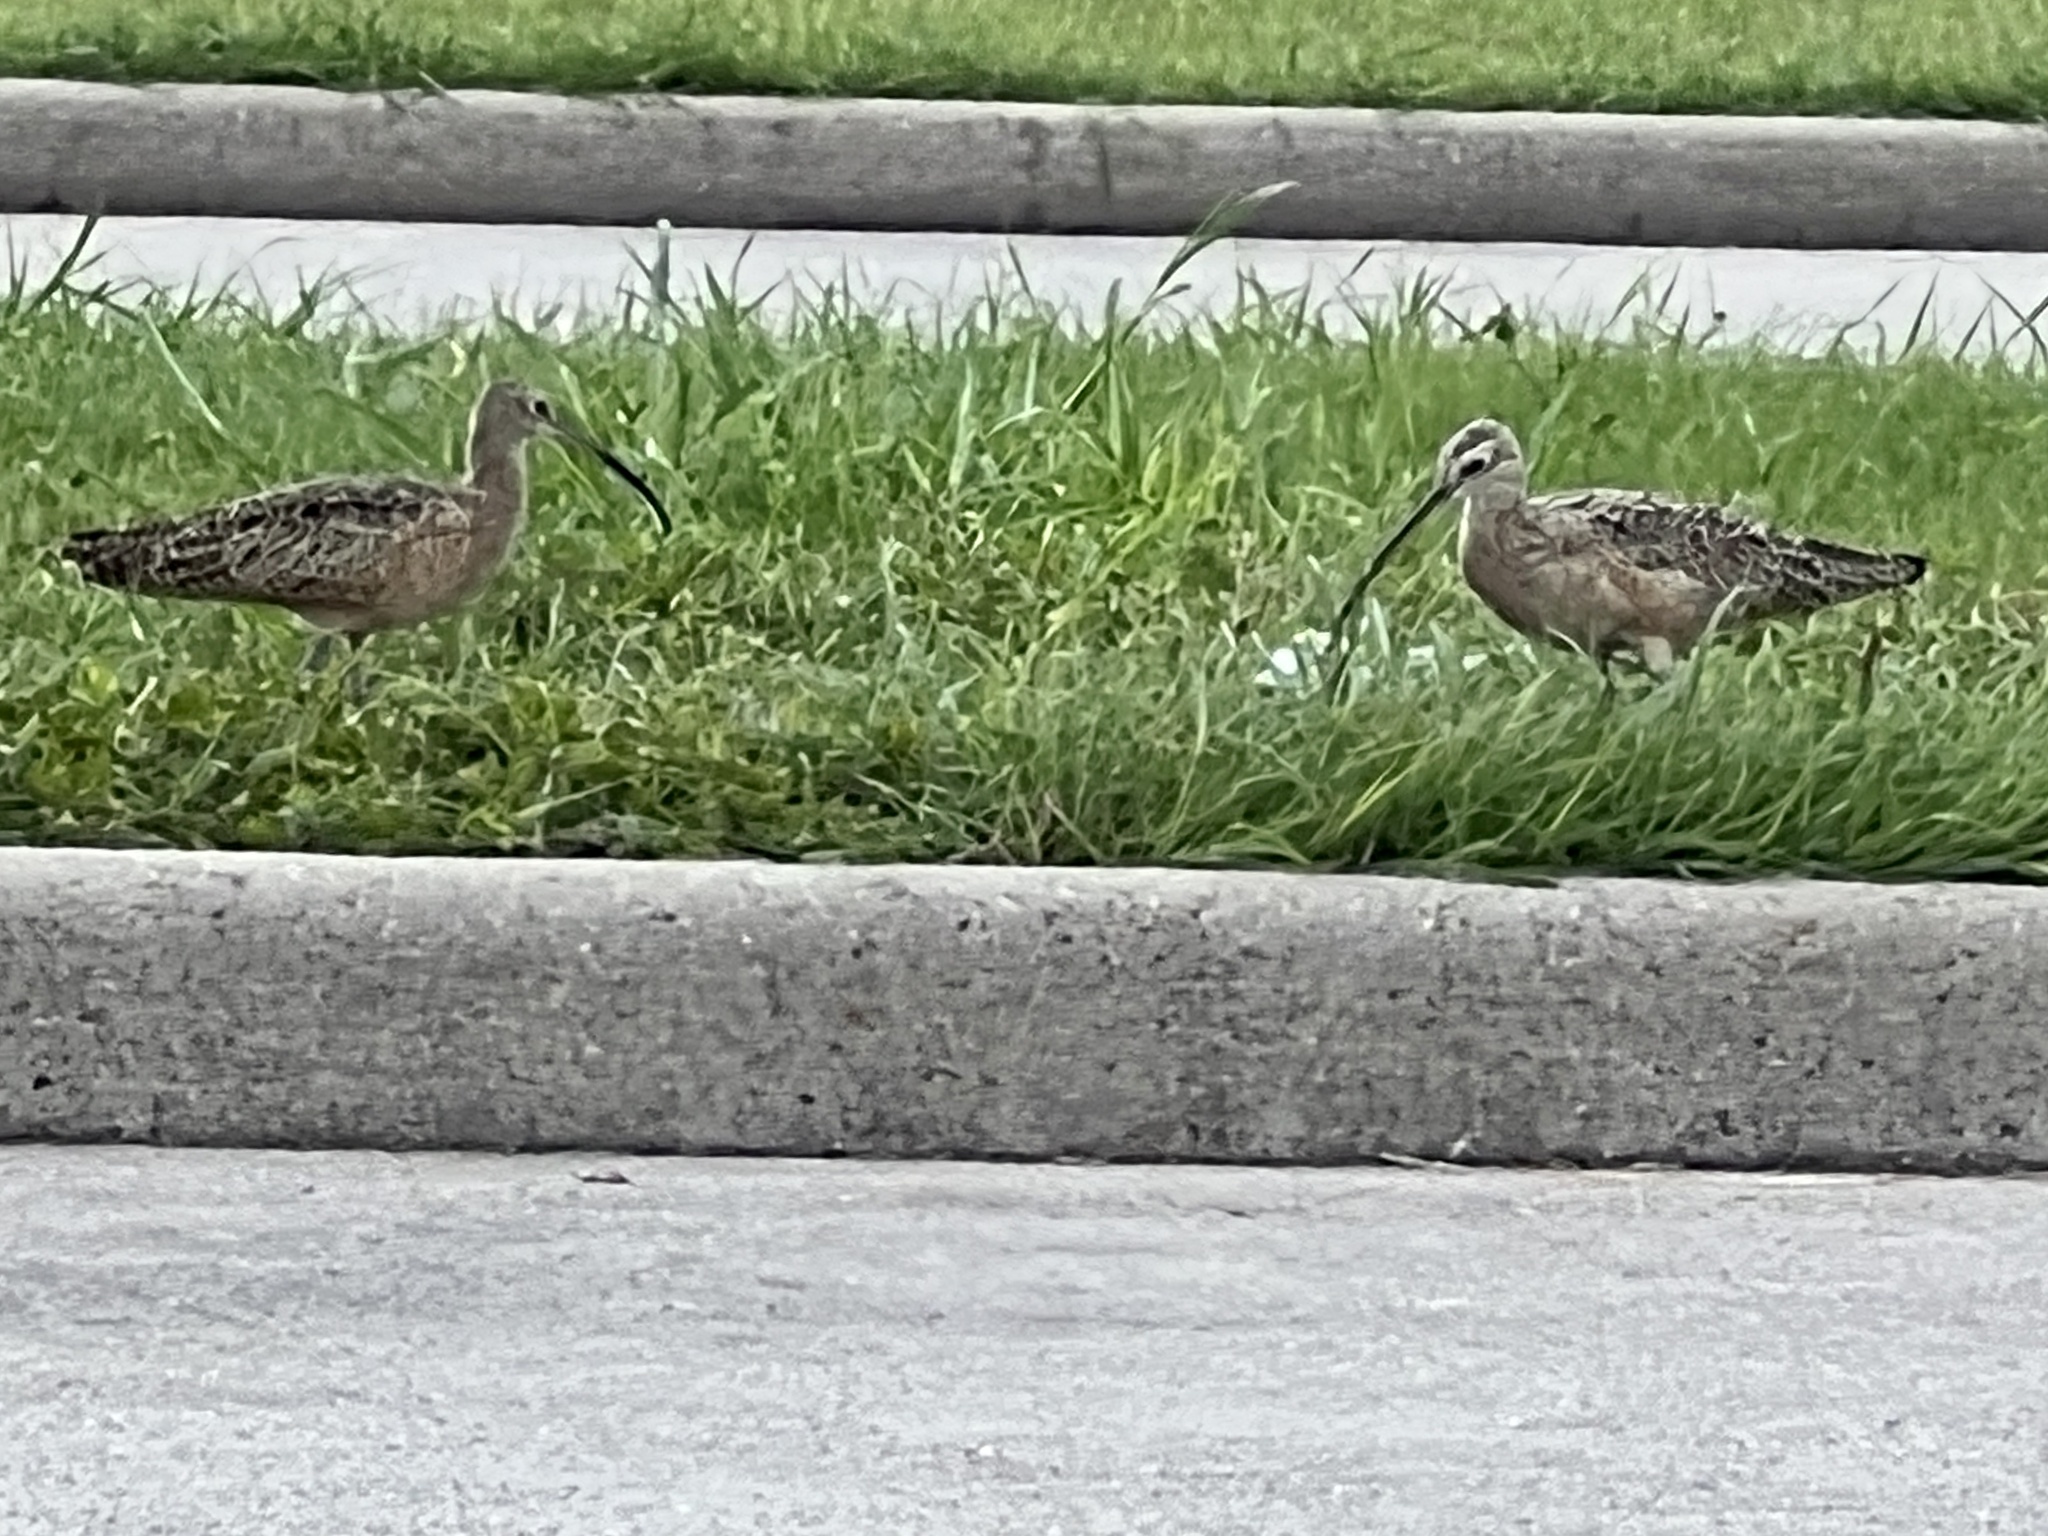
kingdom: Animalia
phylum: Chordata
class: Aves
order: Charadriiformes
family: Scolopacidae
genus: Numenius
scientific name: Numenius americanus
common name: Long-billed curlew
